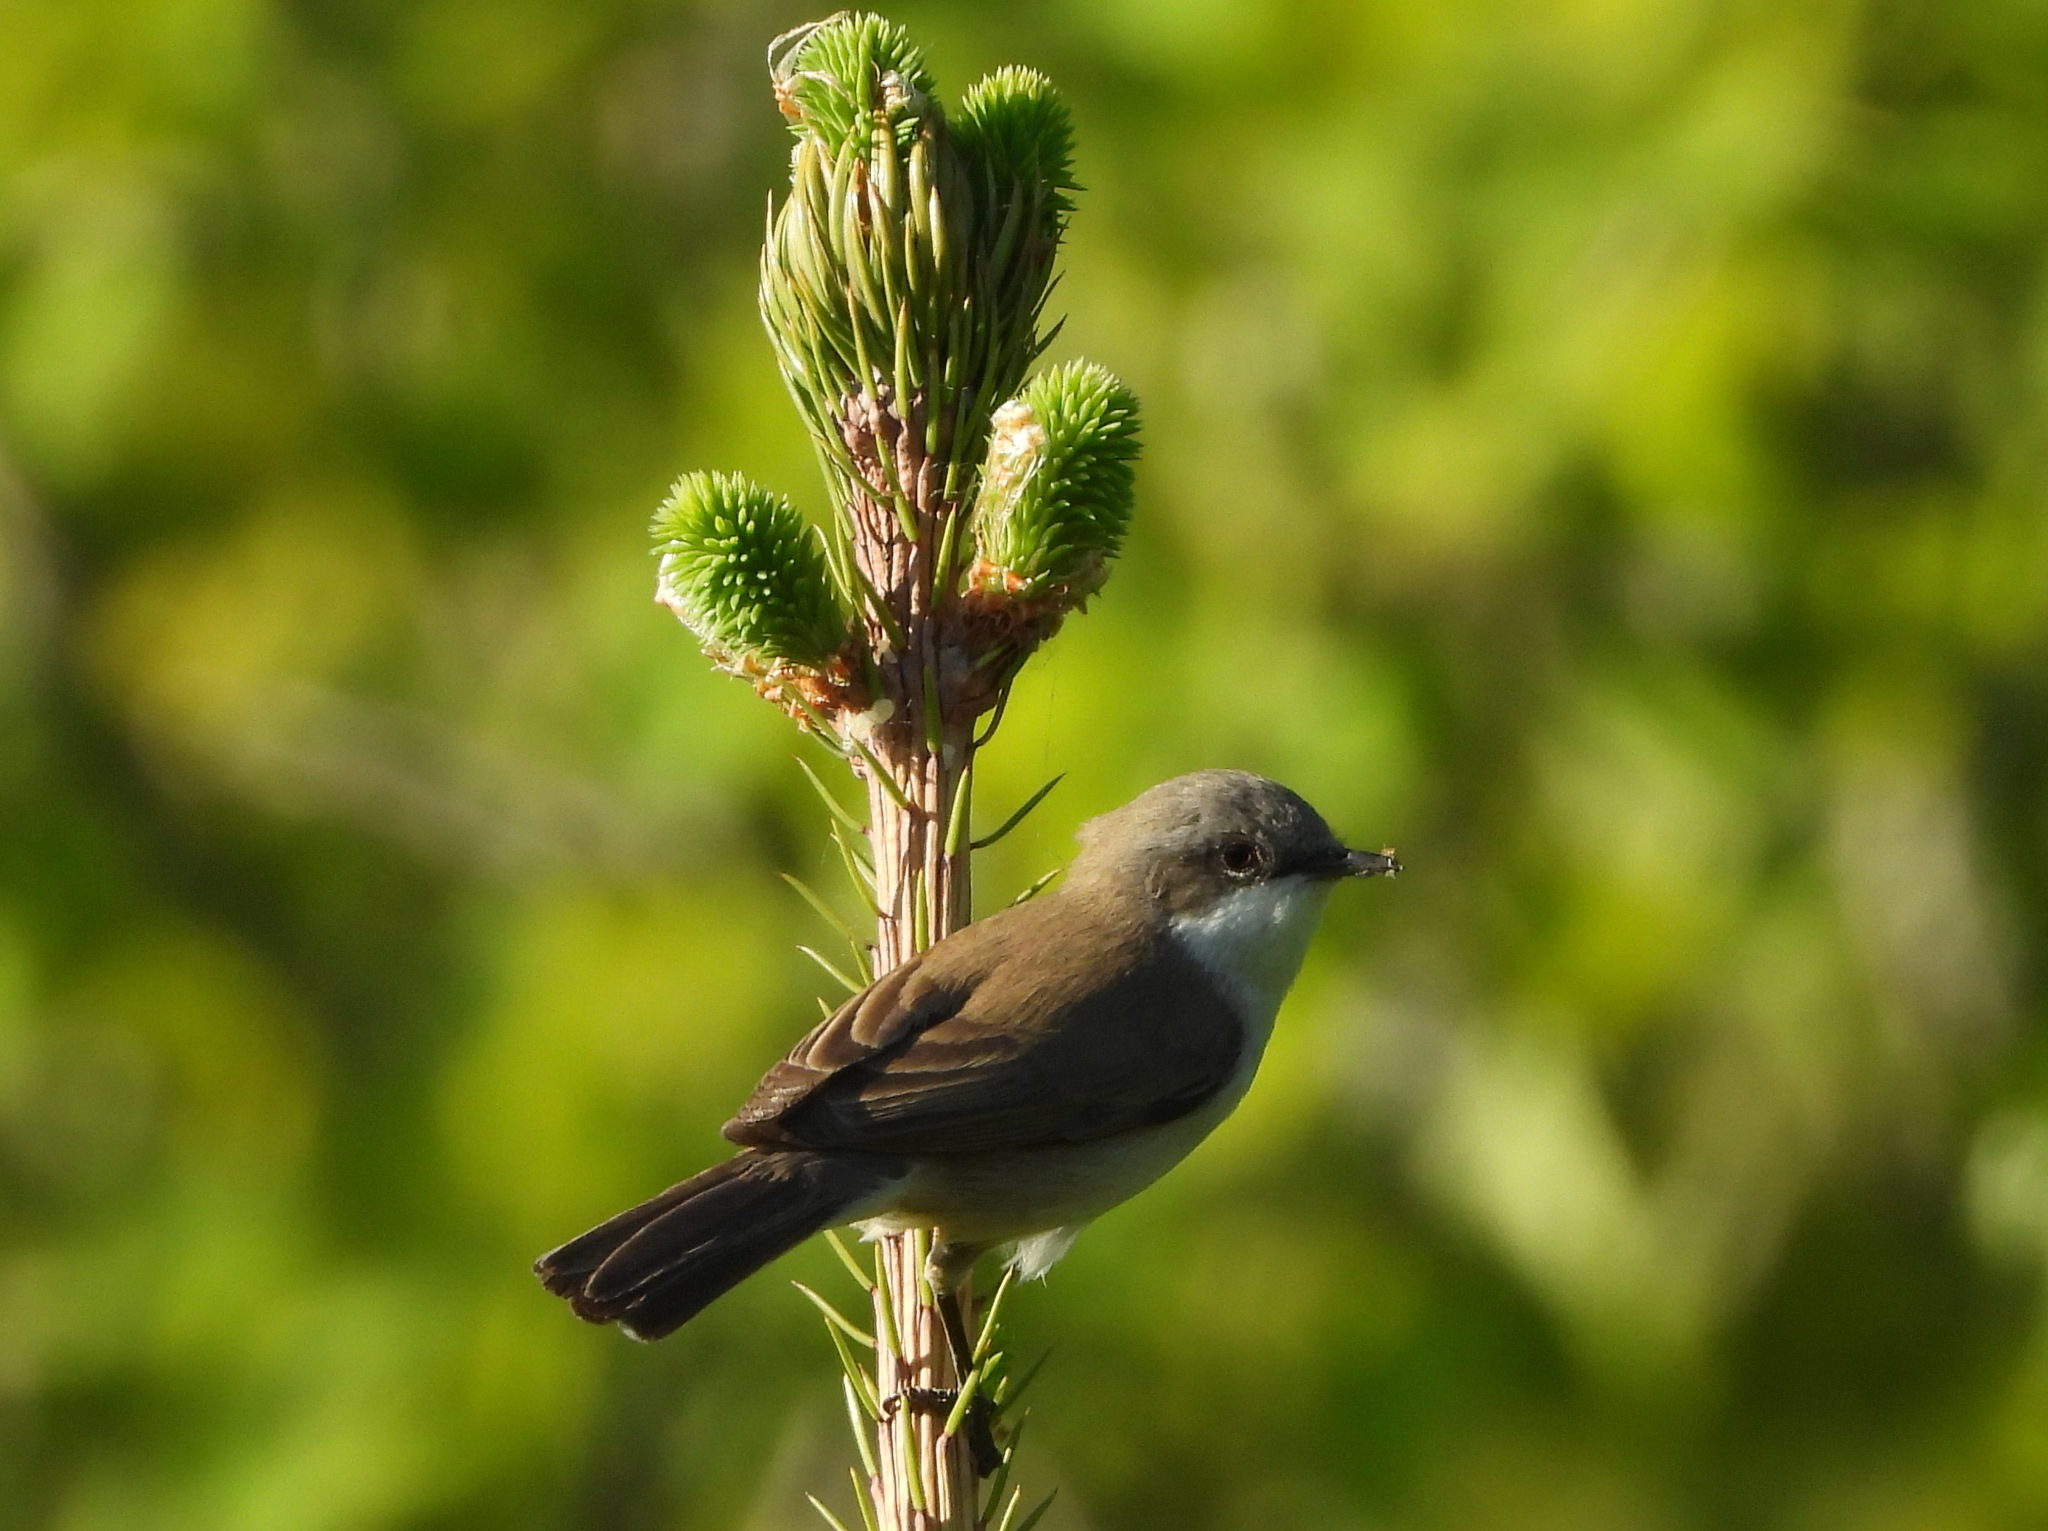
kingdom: Animalia
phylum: Chordata
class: Aves
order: Passeriformes
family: Sylviidae
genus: Sylvia
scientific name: Sylvia curruca
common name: Lesser whitethroat
